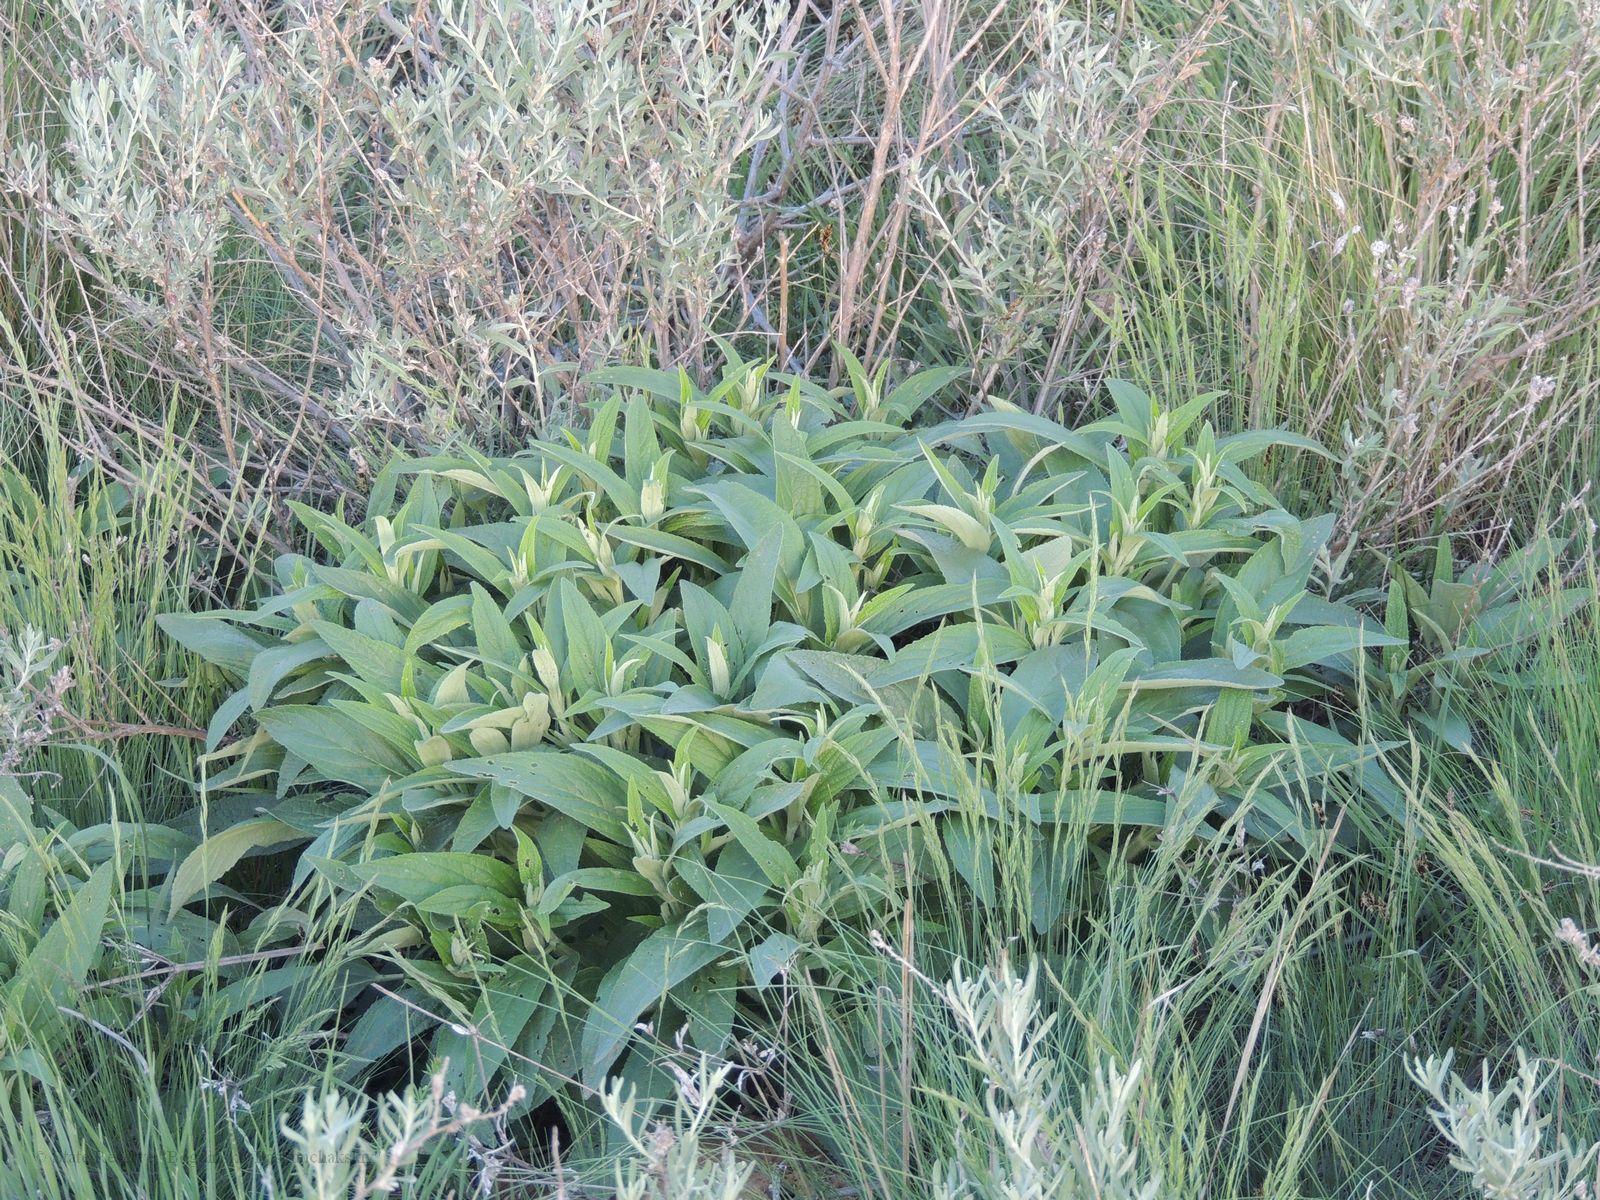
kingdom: Plantae
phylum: Tracheophyta
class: Magnoliopsida
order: Lamiales
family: Lamiaceae
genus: Phlomis
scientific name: Phlomis herba-venti
